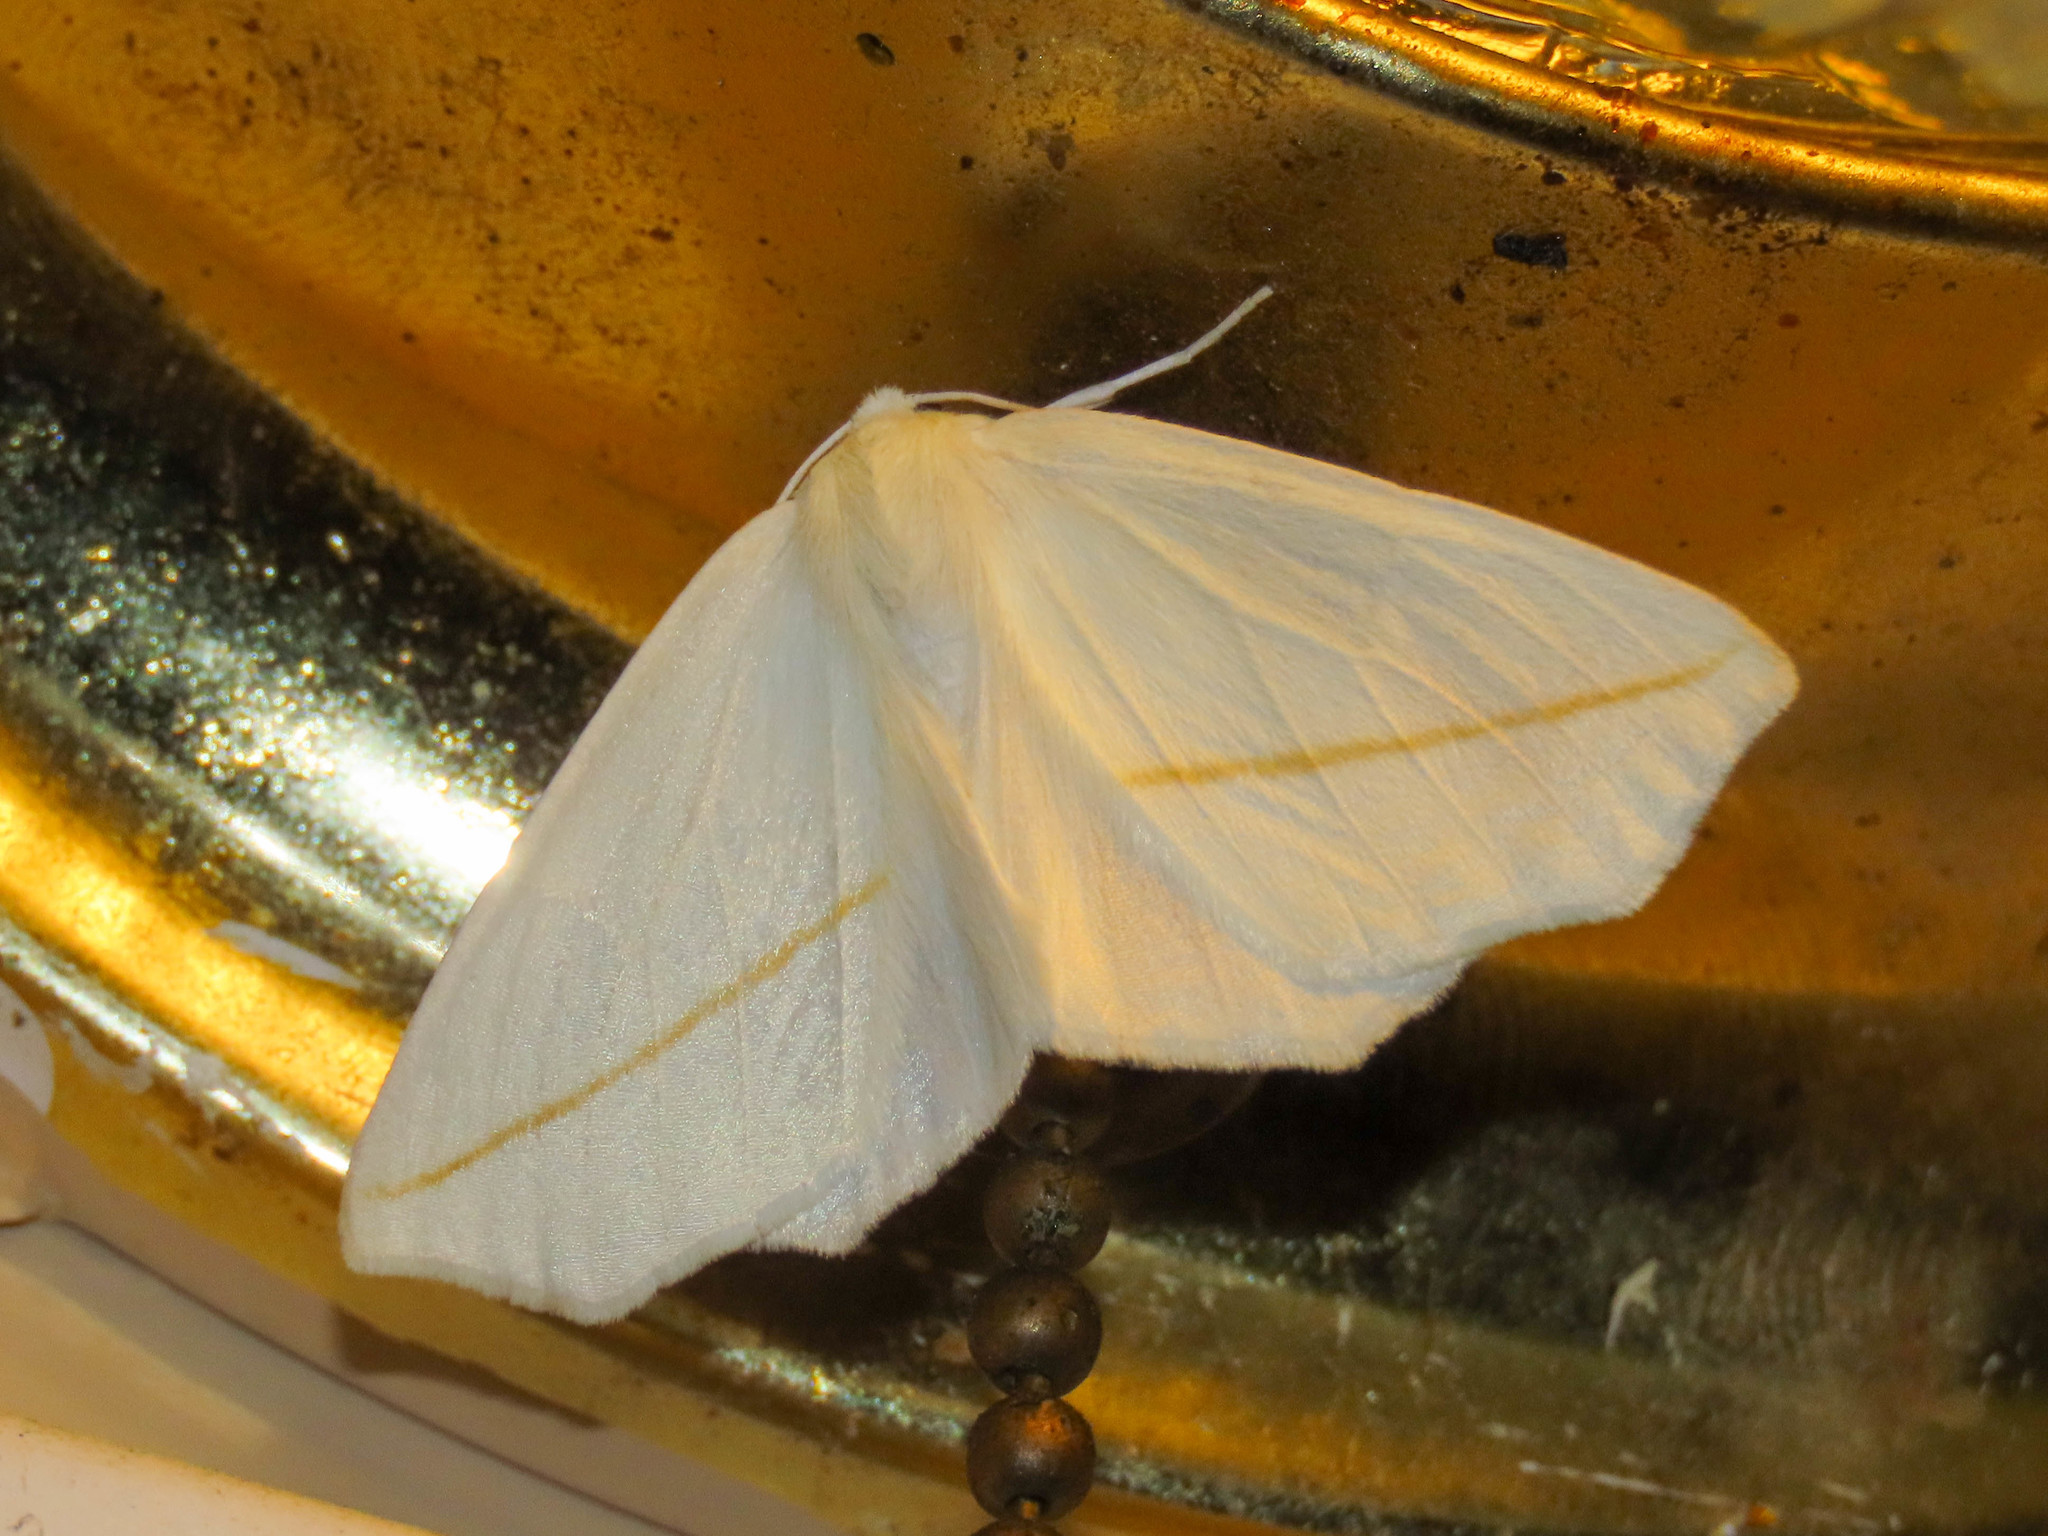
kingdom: Animalia
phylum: Arthropoda
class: Insecta
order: Lepidoptera
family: Geometridae
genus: Tetracis
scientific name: Tetracis cachexiata
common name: White slant-line
